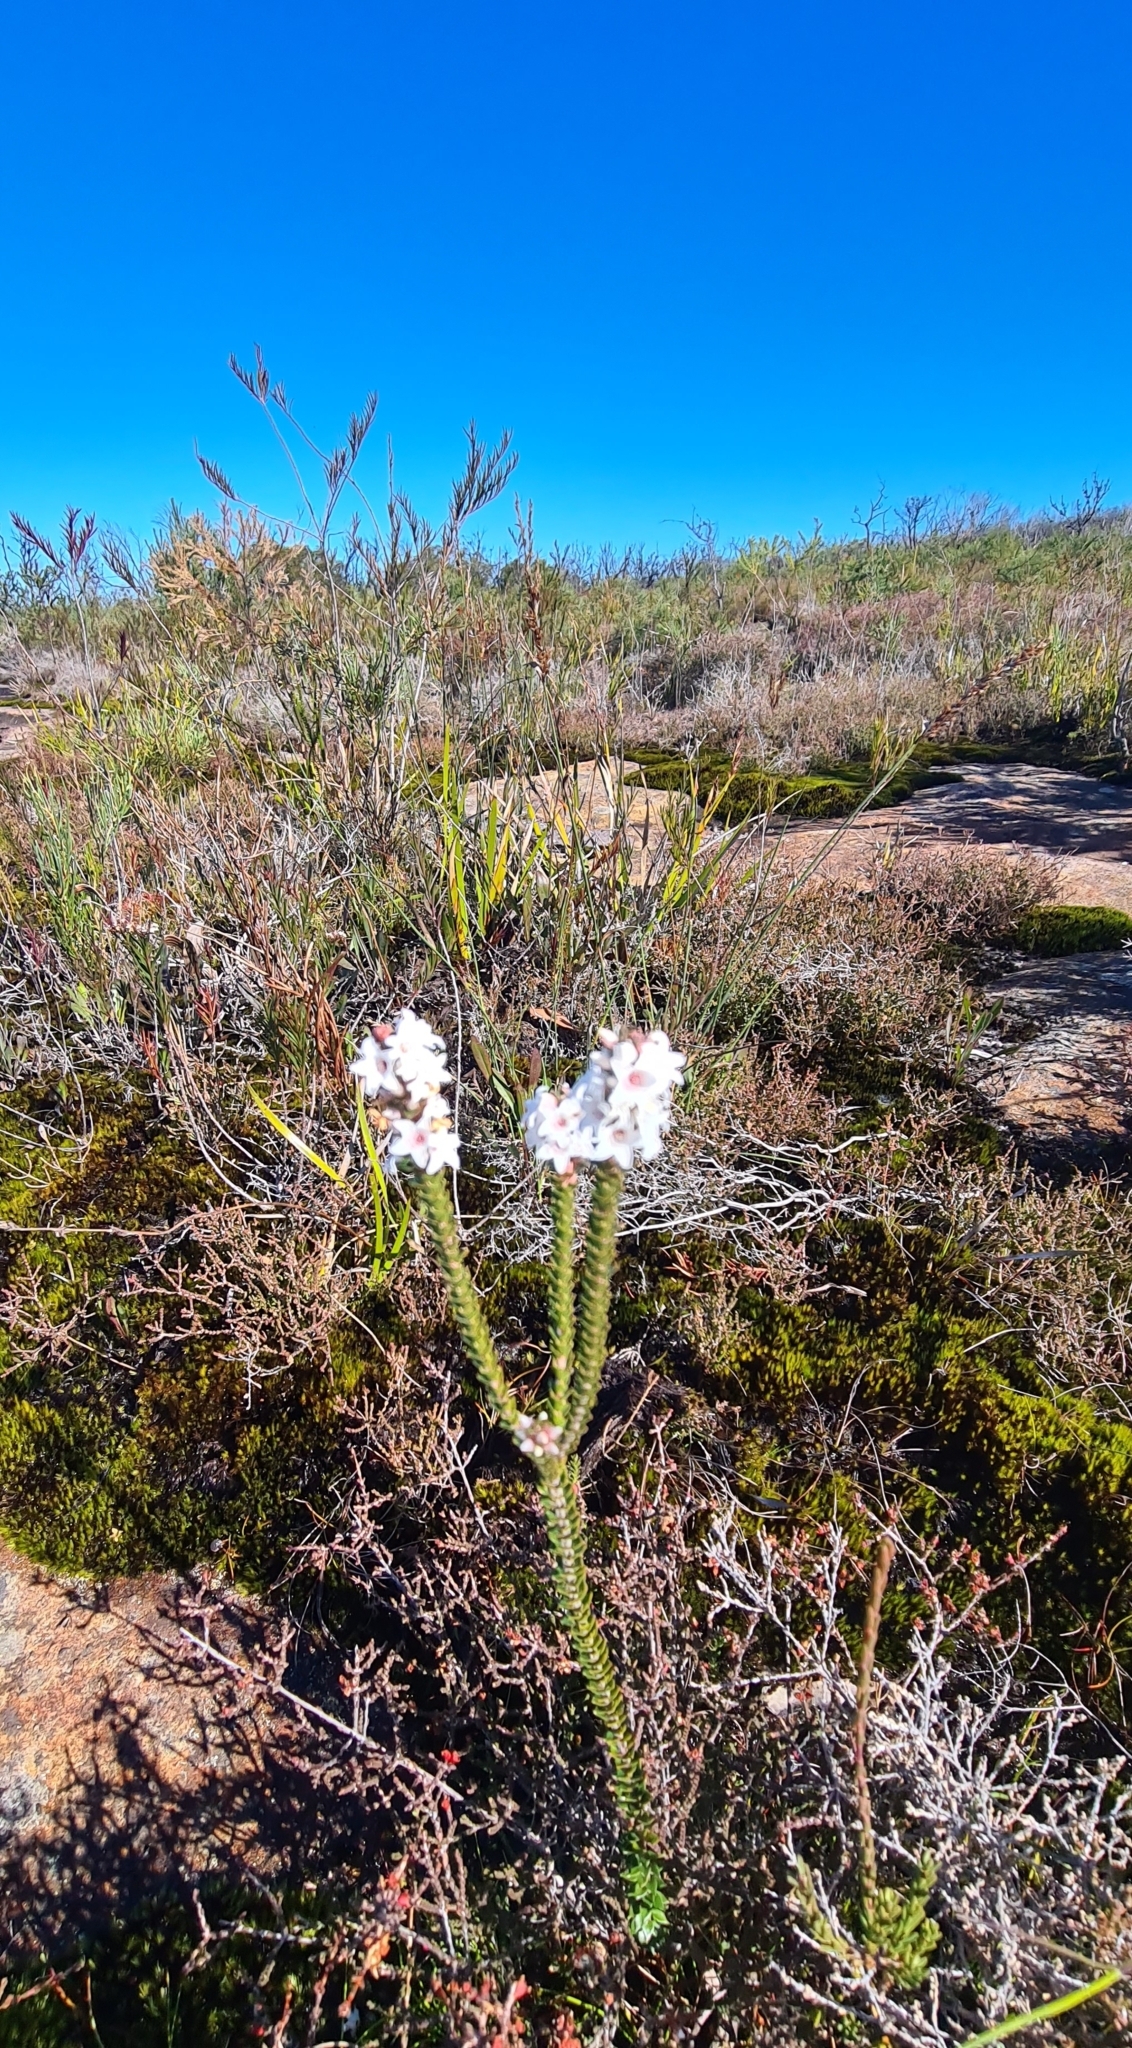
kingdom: Plantae
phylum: Tracheophyta
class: Magnoliopsida
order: Ericales
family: Ericaceae
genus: Epacris
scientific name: Epacris microphylla
